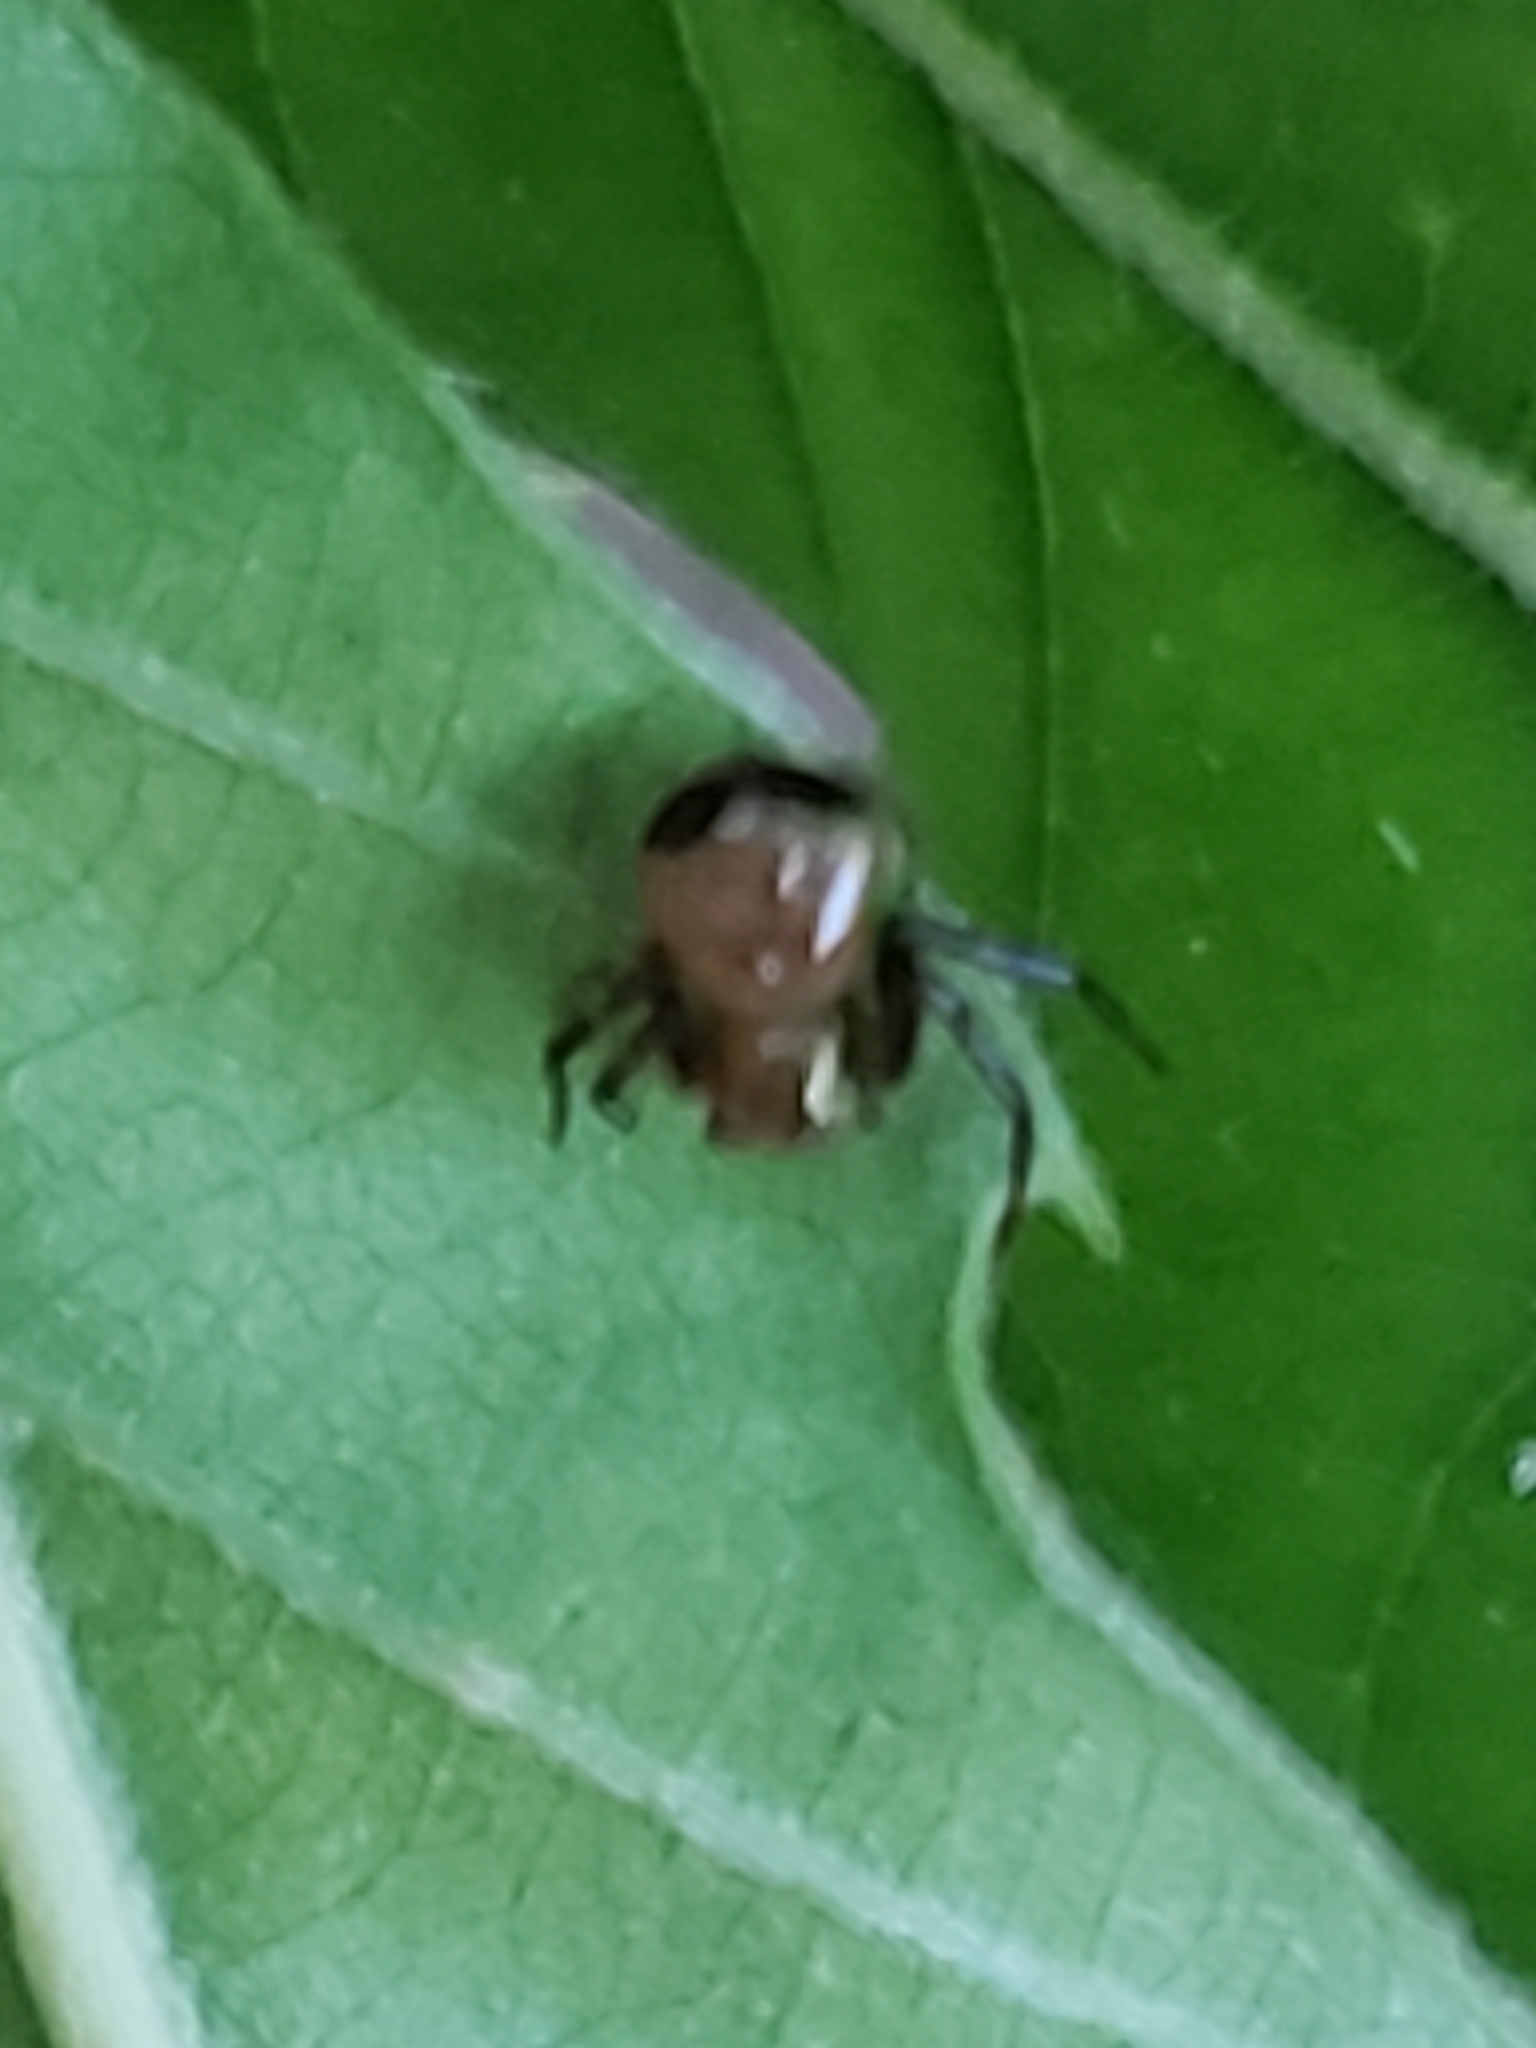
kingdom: Animalia
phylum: Arthropoda
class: Arachnida
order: Araneae
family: Thomisidae
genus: Synema
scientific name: Synema parvulum
